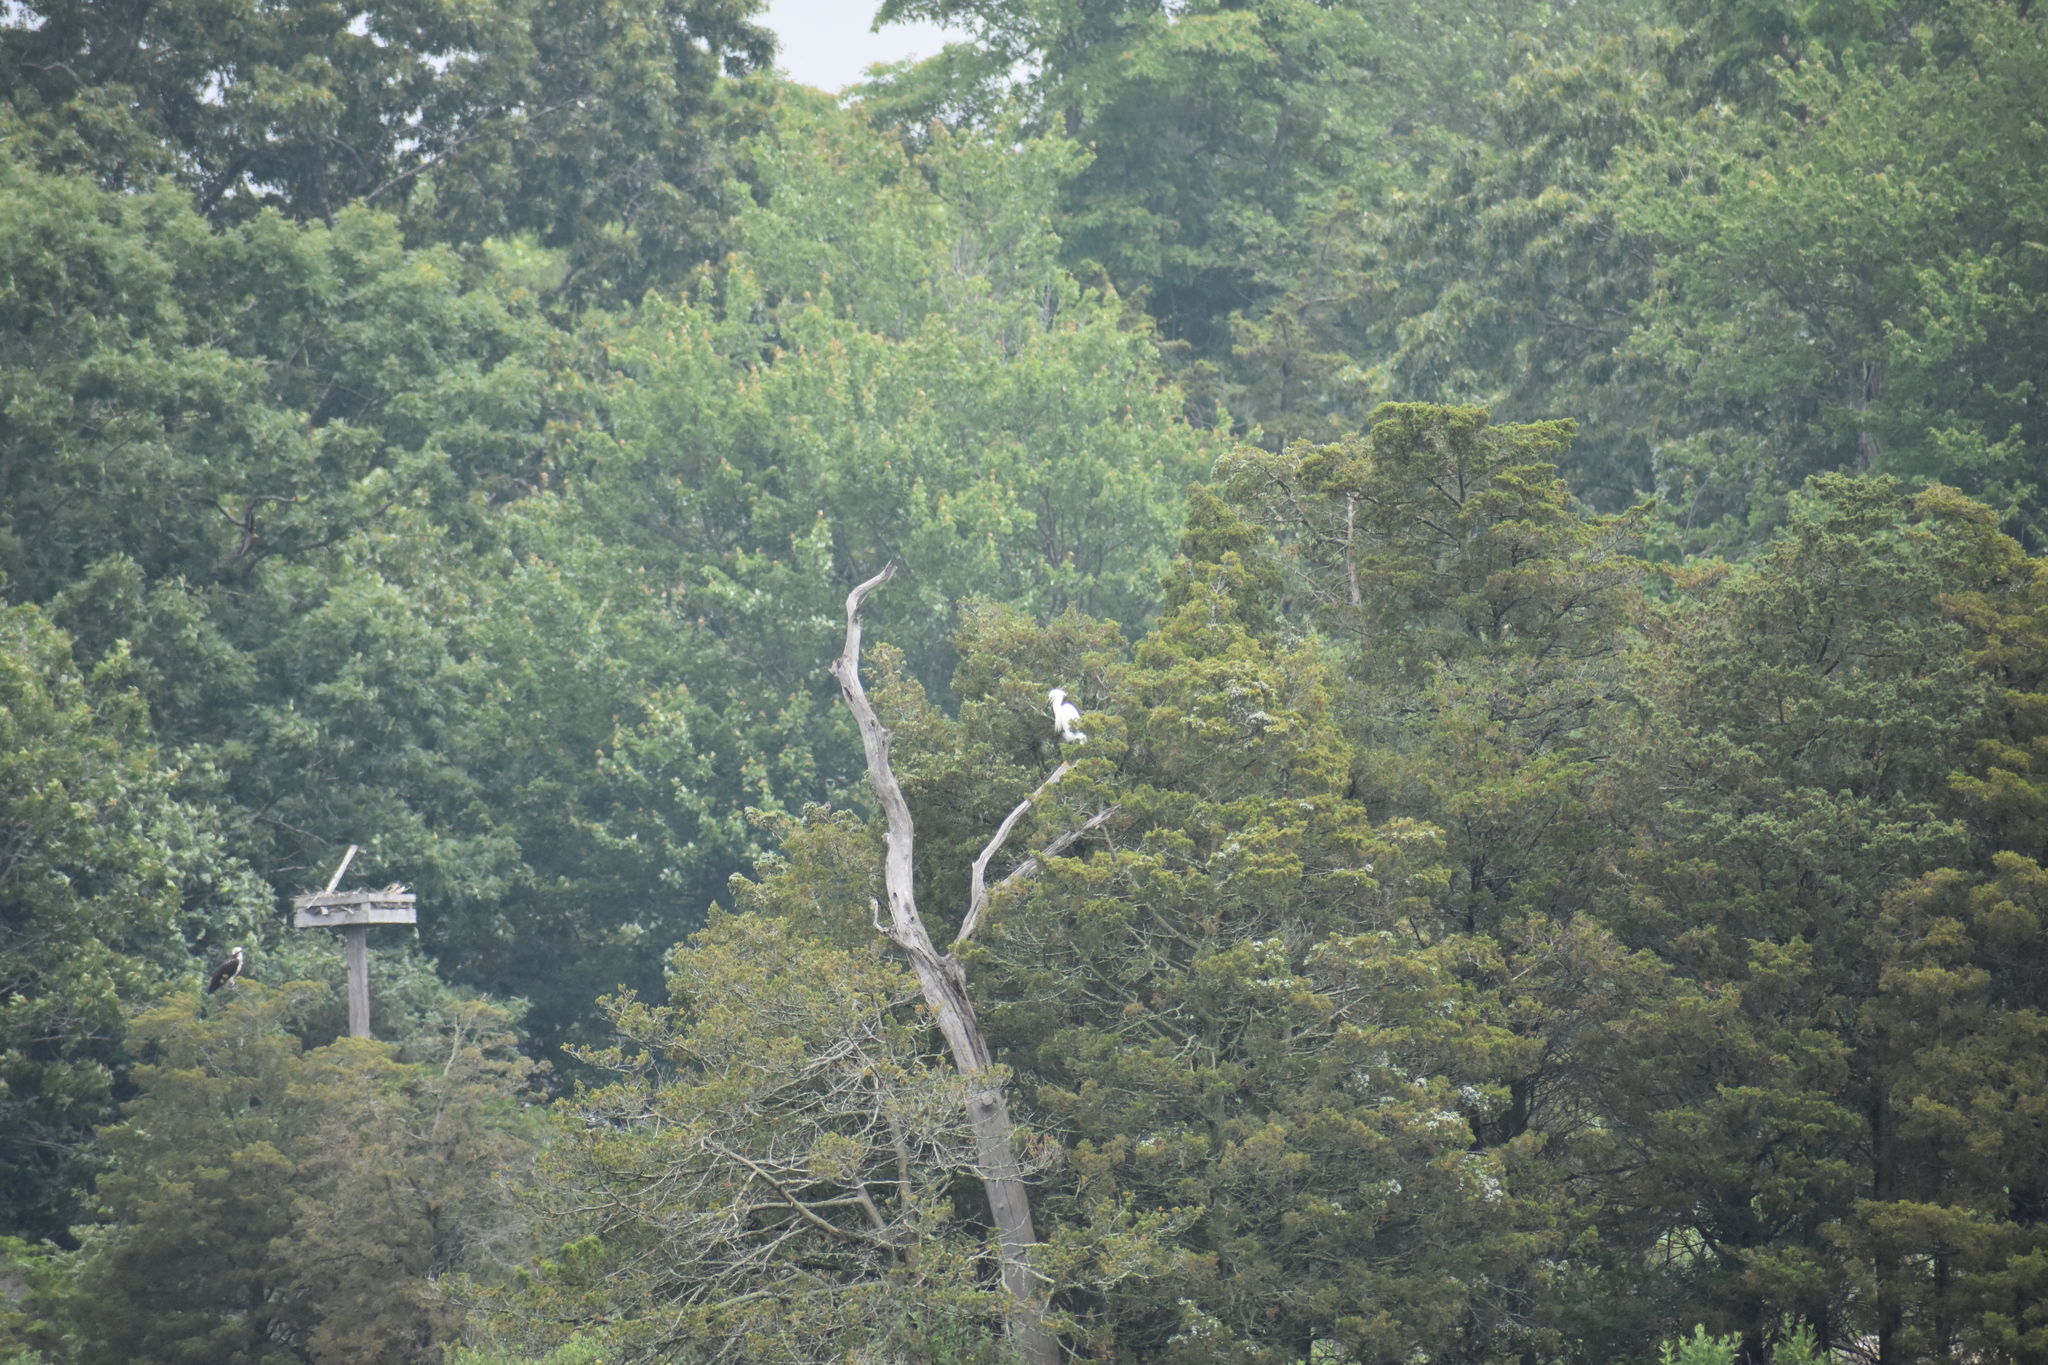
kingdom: Animalia
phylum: Chordata
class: Aves
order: Pelecaniformes
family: Ardeidae
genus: Egretta
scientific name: Egretta thula
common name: Snowy egret
